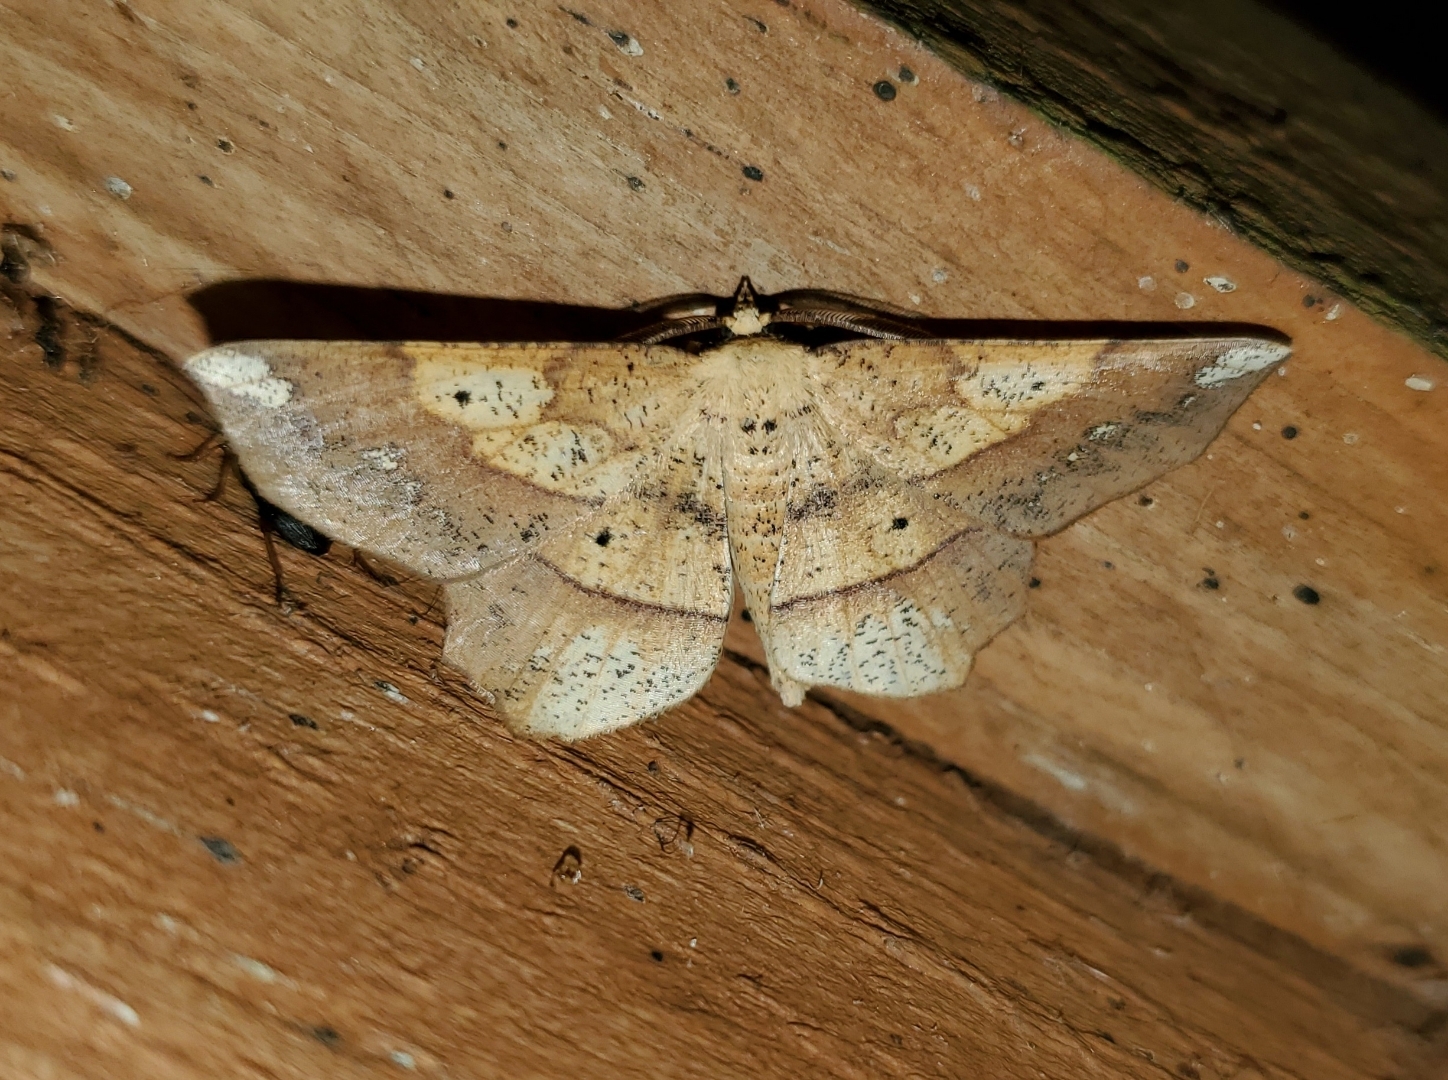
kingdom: Animalia
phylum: Arthropoda
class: Insecta
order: Lepidoptera
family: Geometridae
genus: Euchlaena
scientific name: Euchlaena amoenaria
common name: Deep yellow euchlaena
